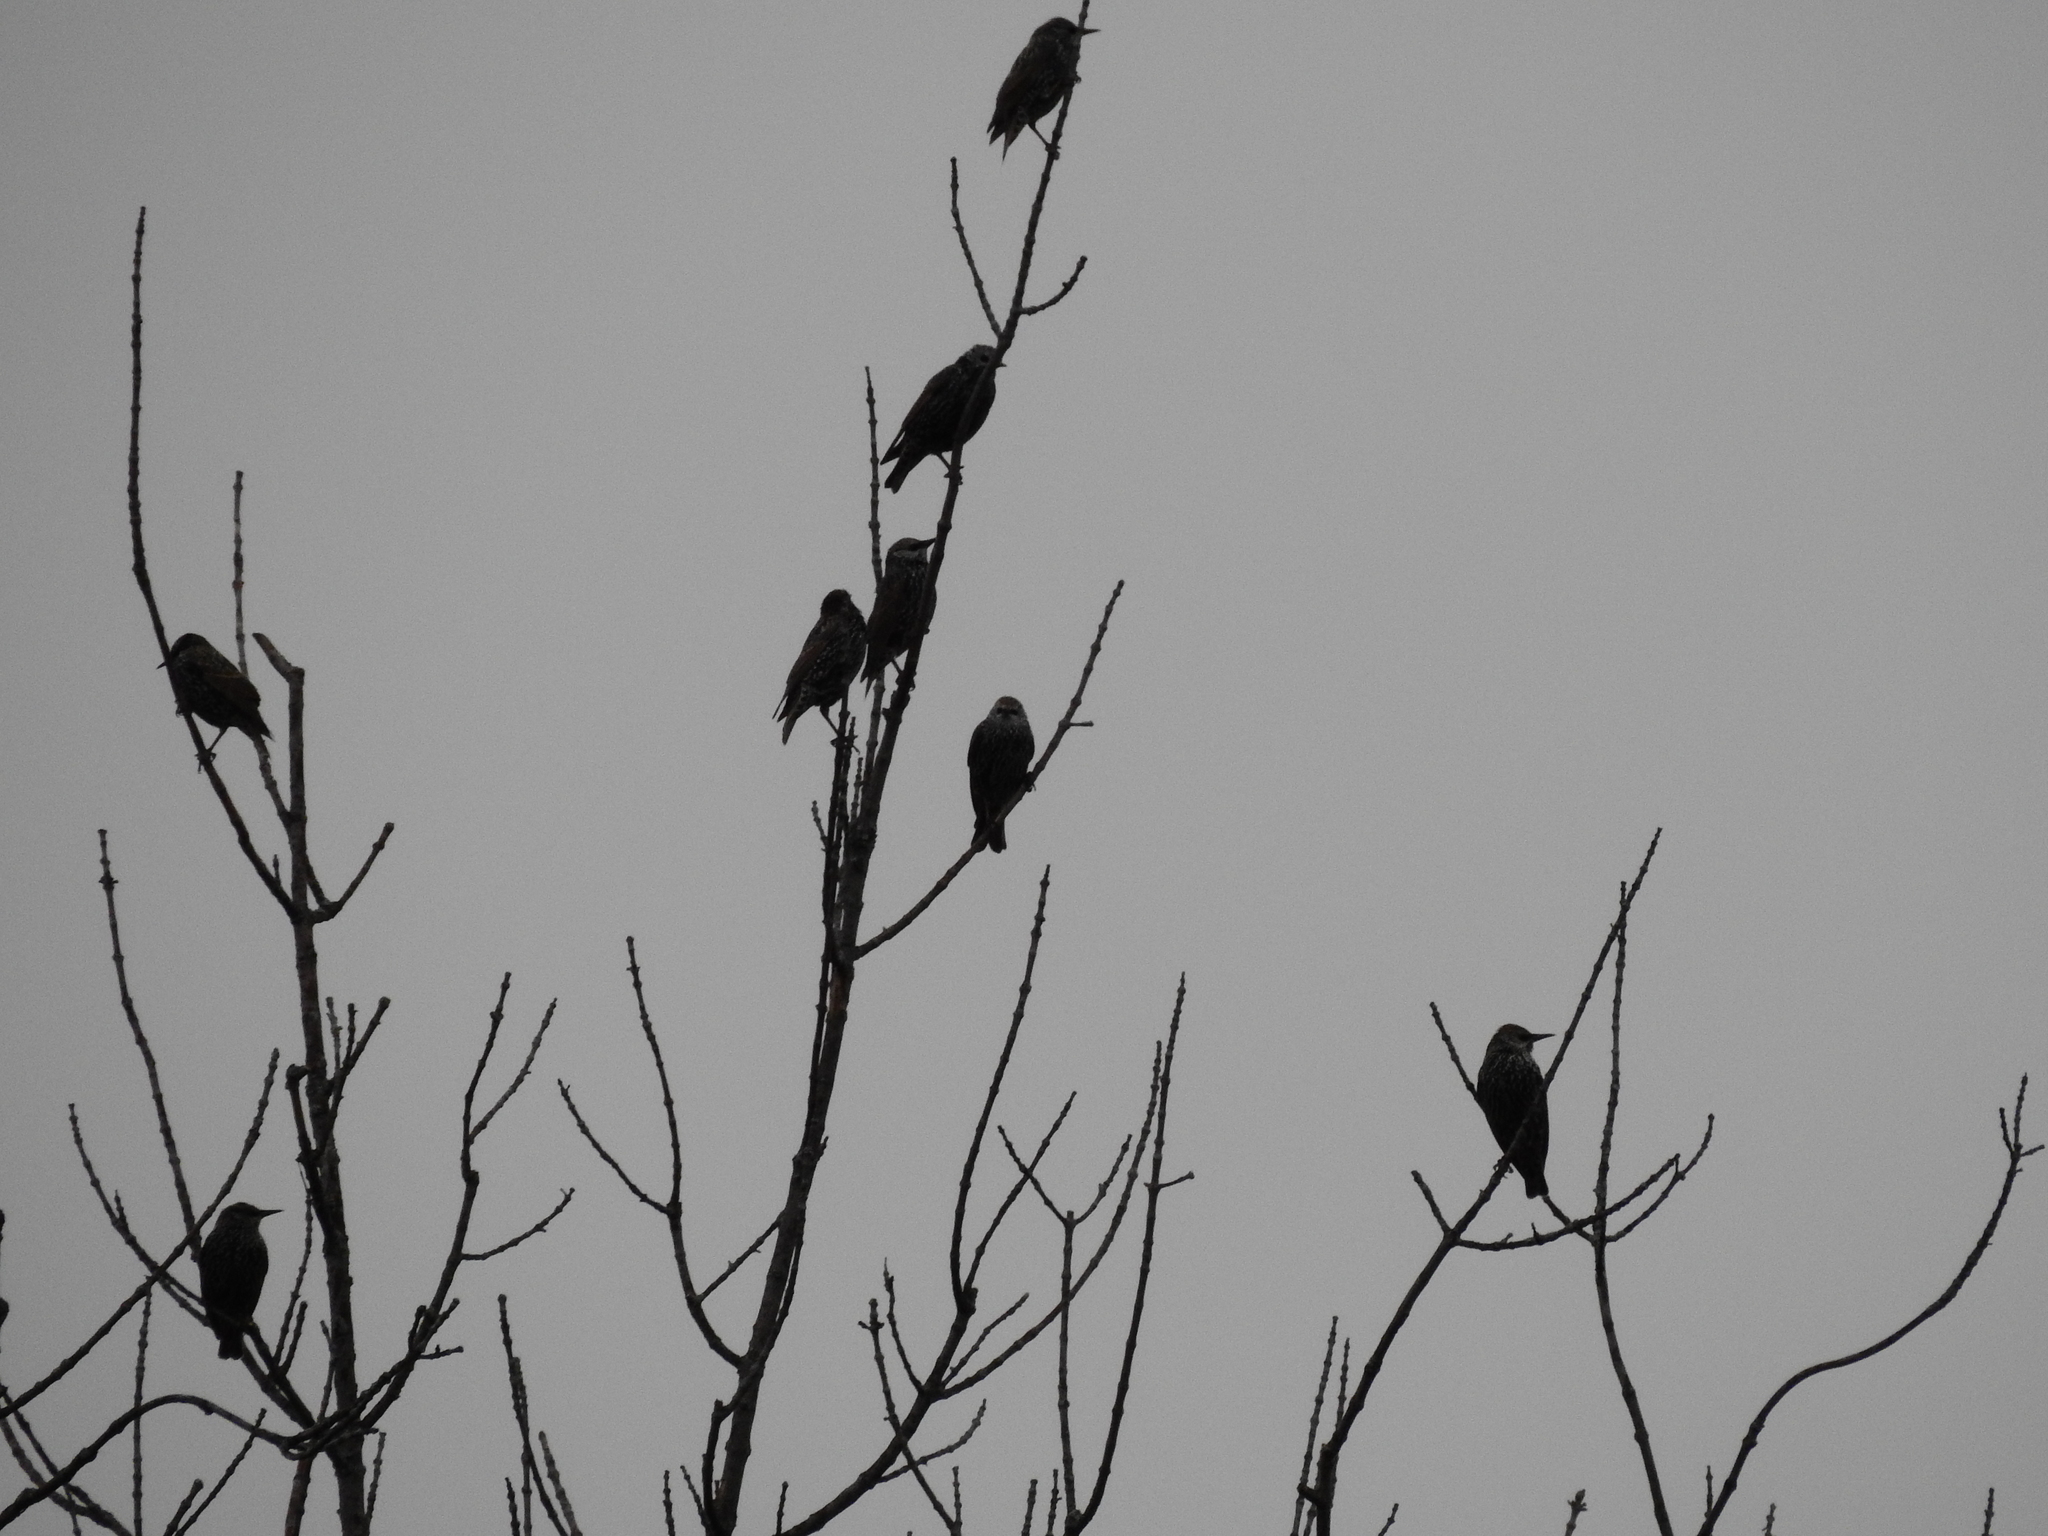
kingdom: Animalia
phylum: Chordata
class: Aves
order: Passeriformes
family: Sturnidae
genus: Sturnus
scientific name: Sturnus vulgaris
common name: Common starling
